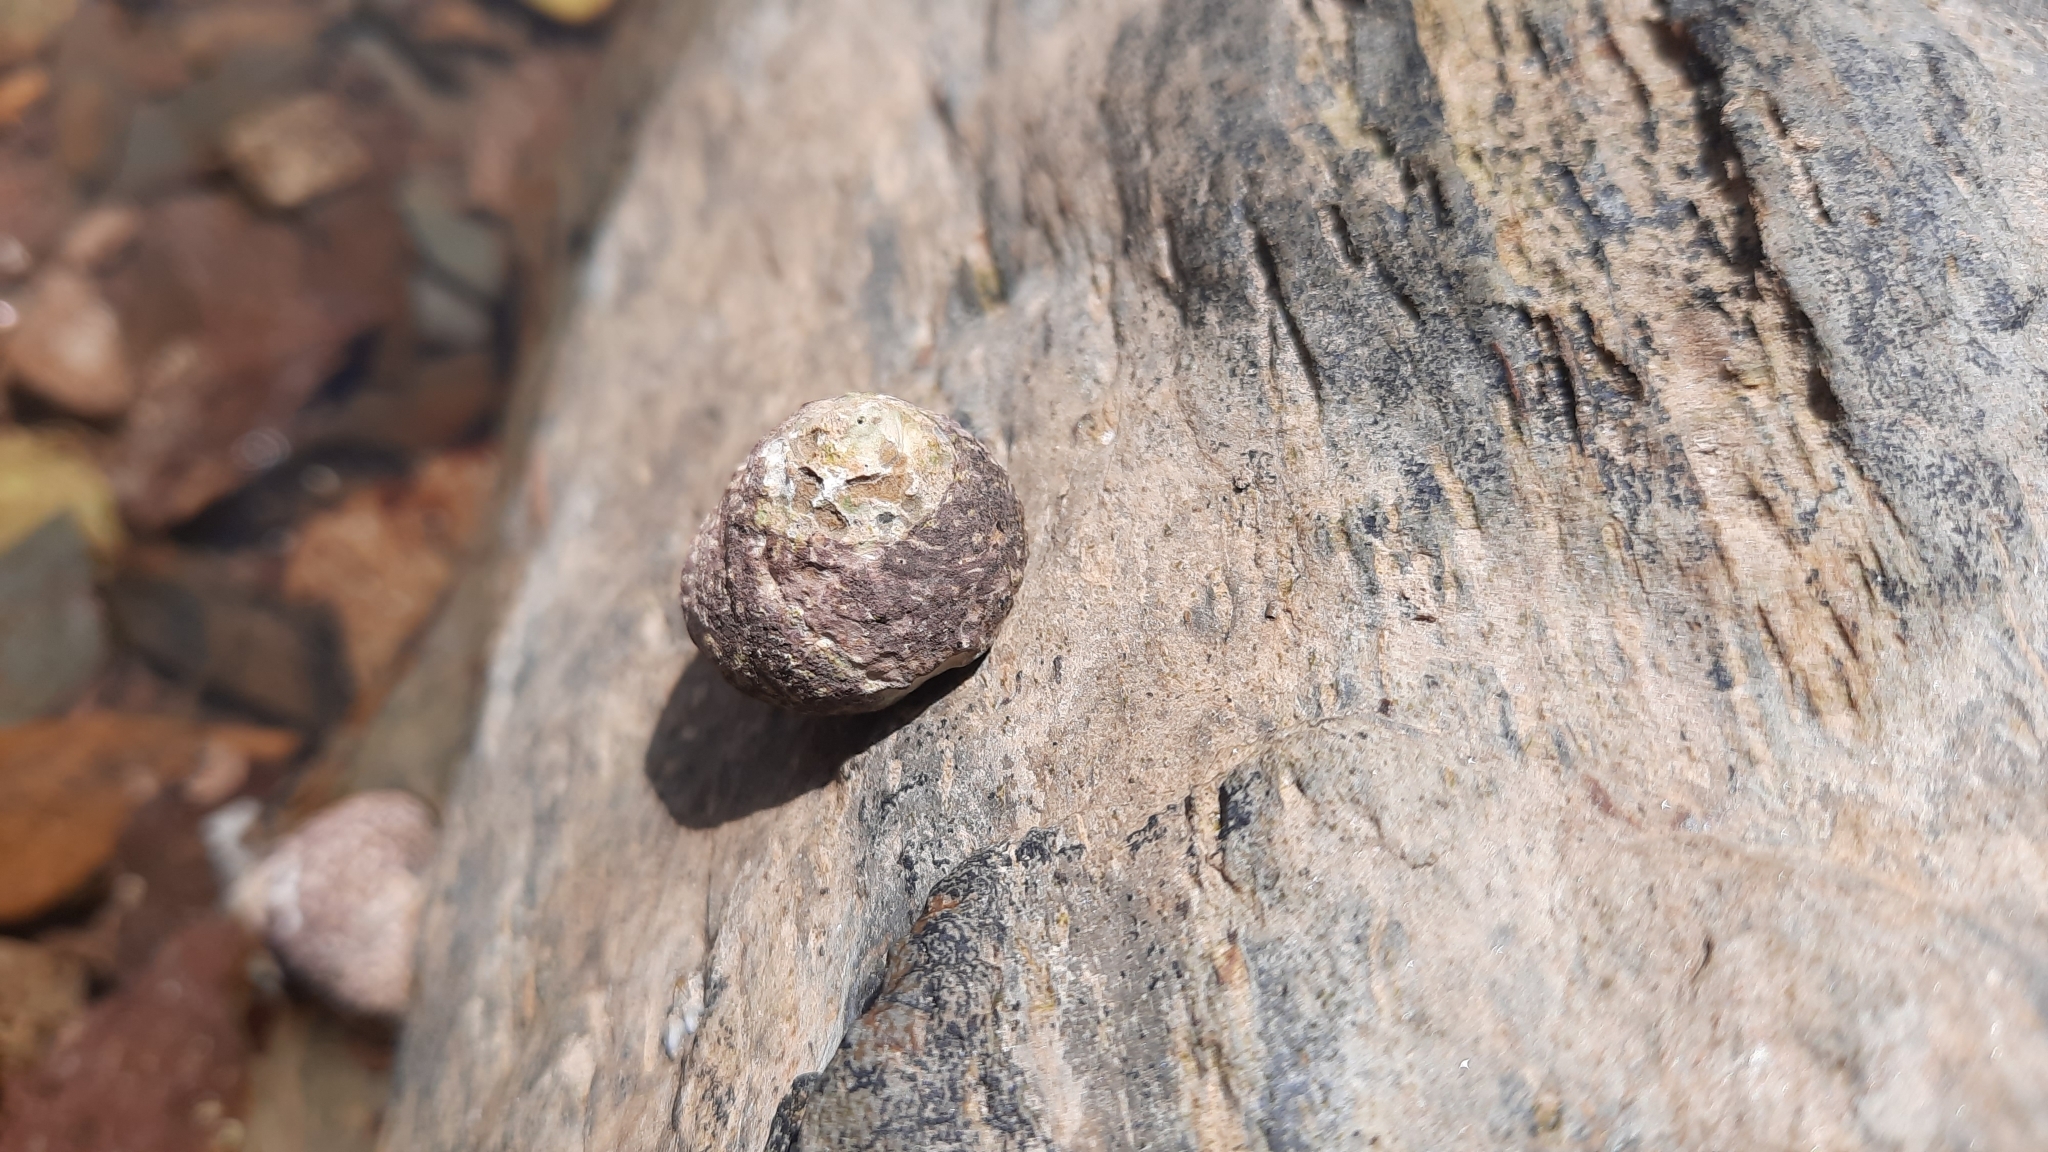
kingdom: Animalia
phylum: Mollusca
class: Gastropoda
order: Trochida
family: Trochidae
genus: Phorcus
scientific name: Phorcus lineatus
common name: Toothed top shell
